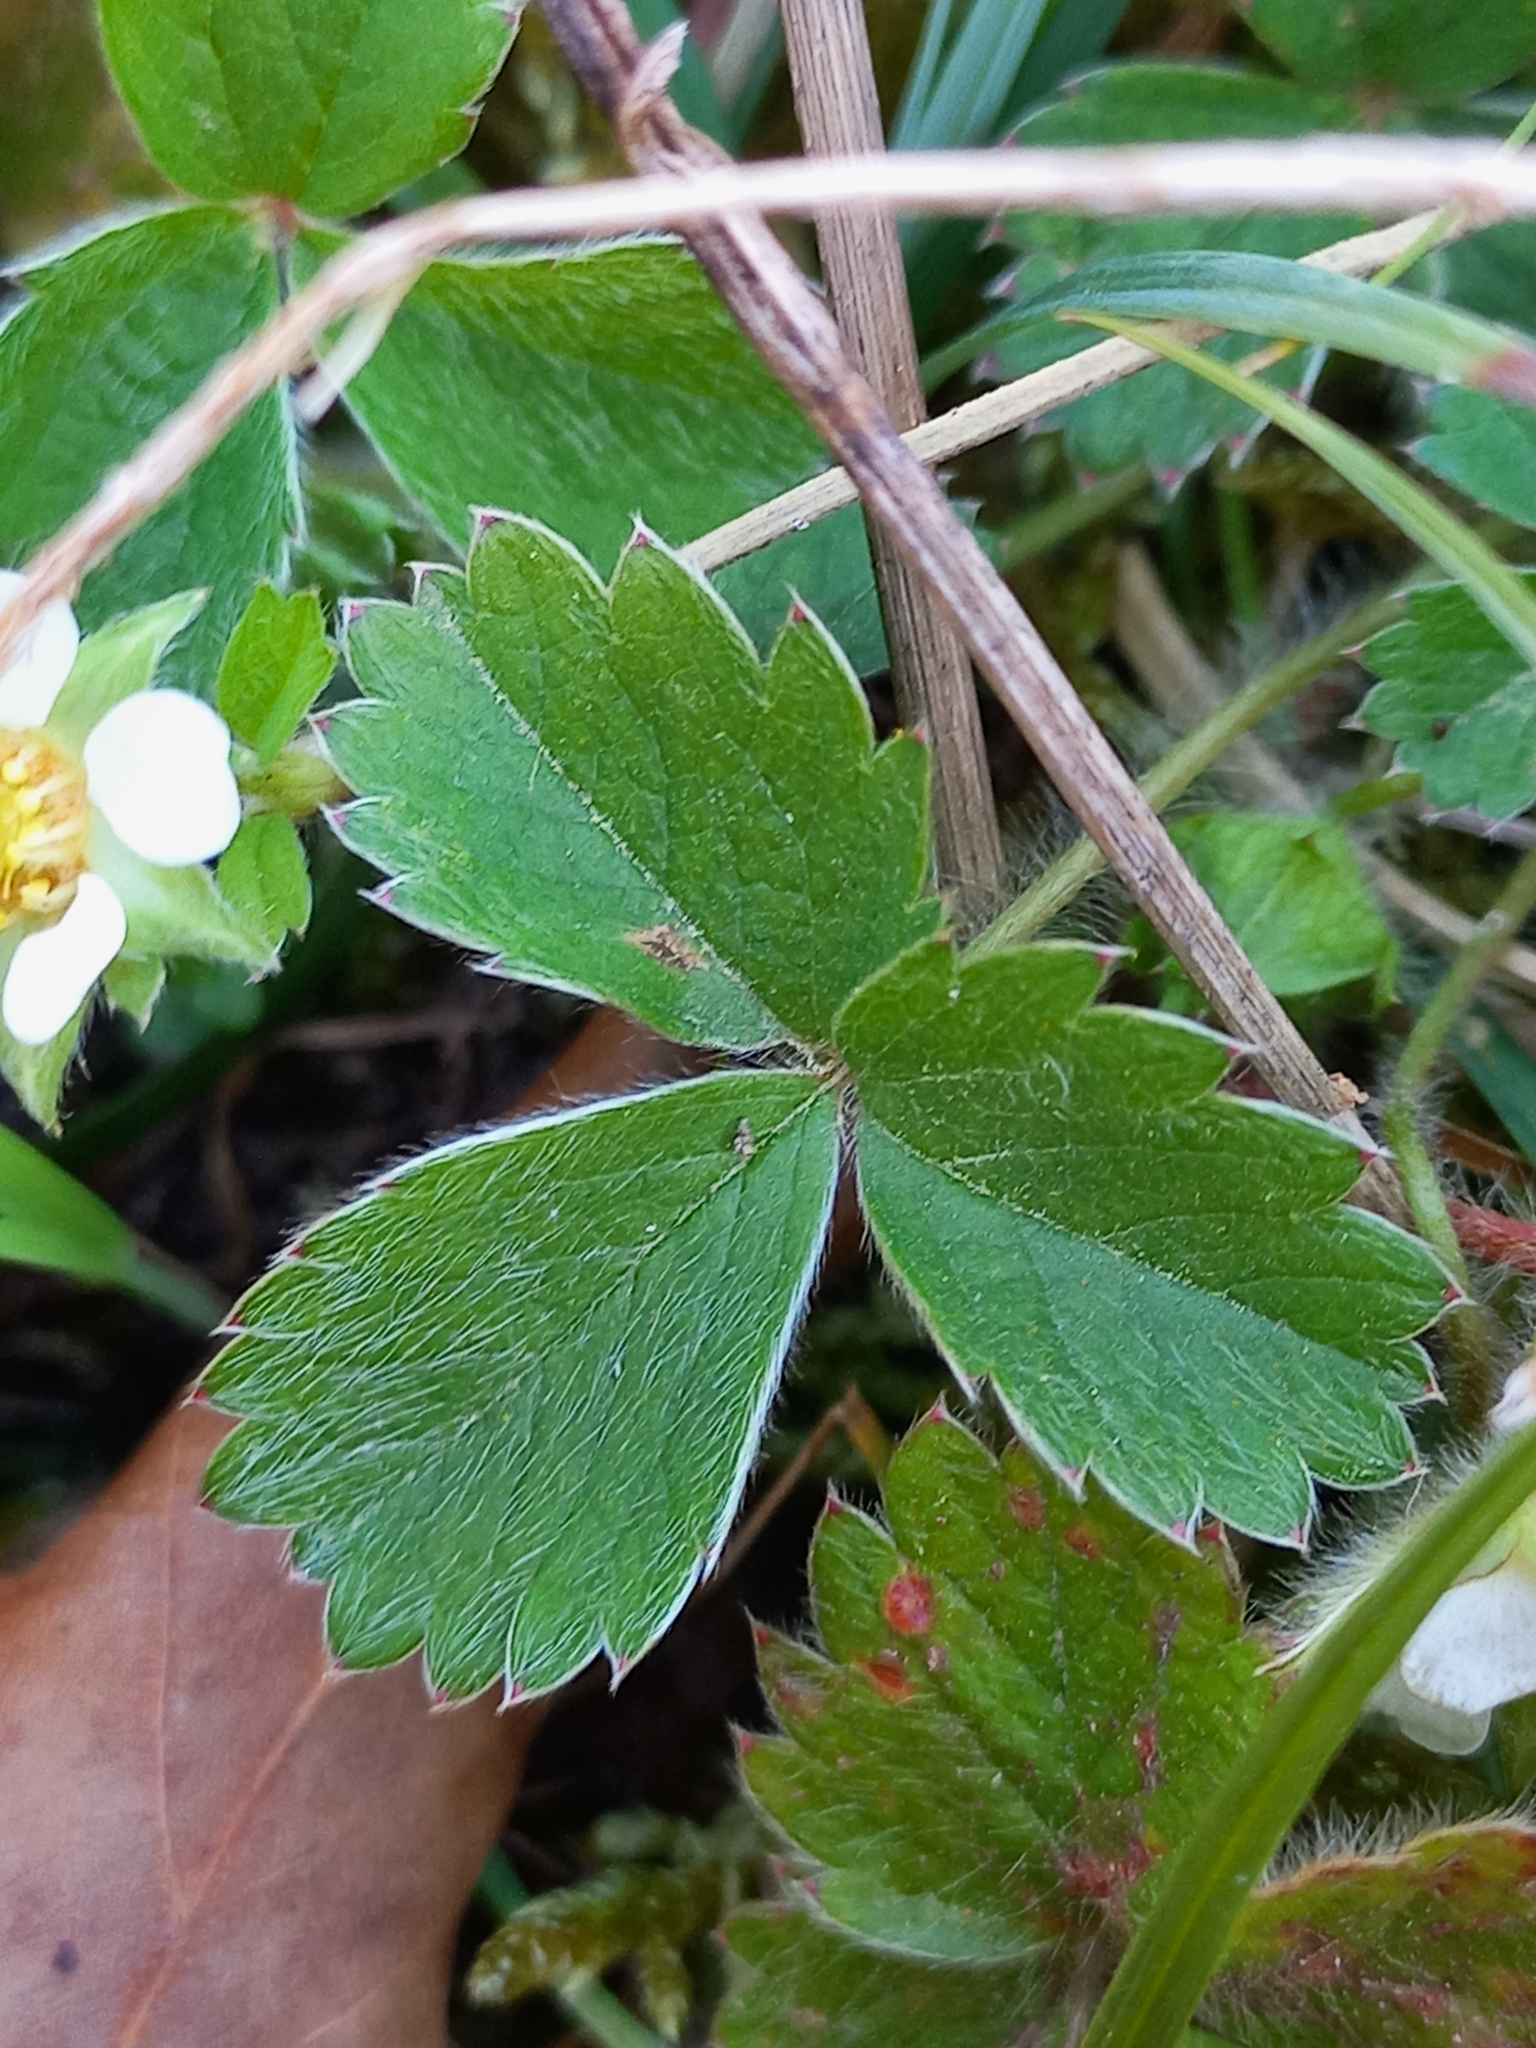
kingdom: Plantae
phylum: Tracheophyta
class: Magnoliopsida
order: Rosales
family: Rosaceae
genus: Potentilla
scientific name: Potentilla sterilis
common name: Barren strawberry
